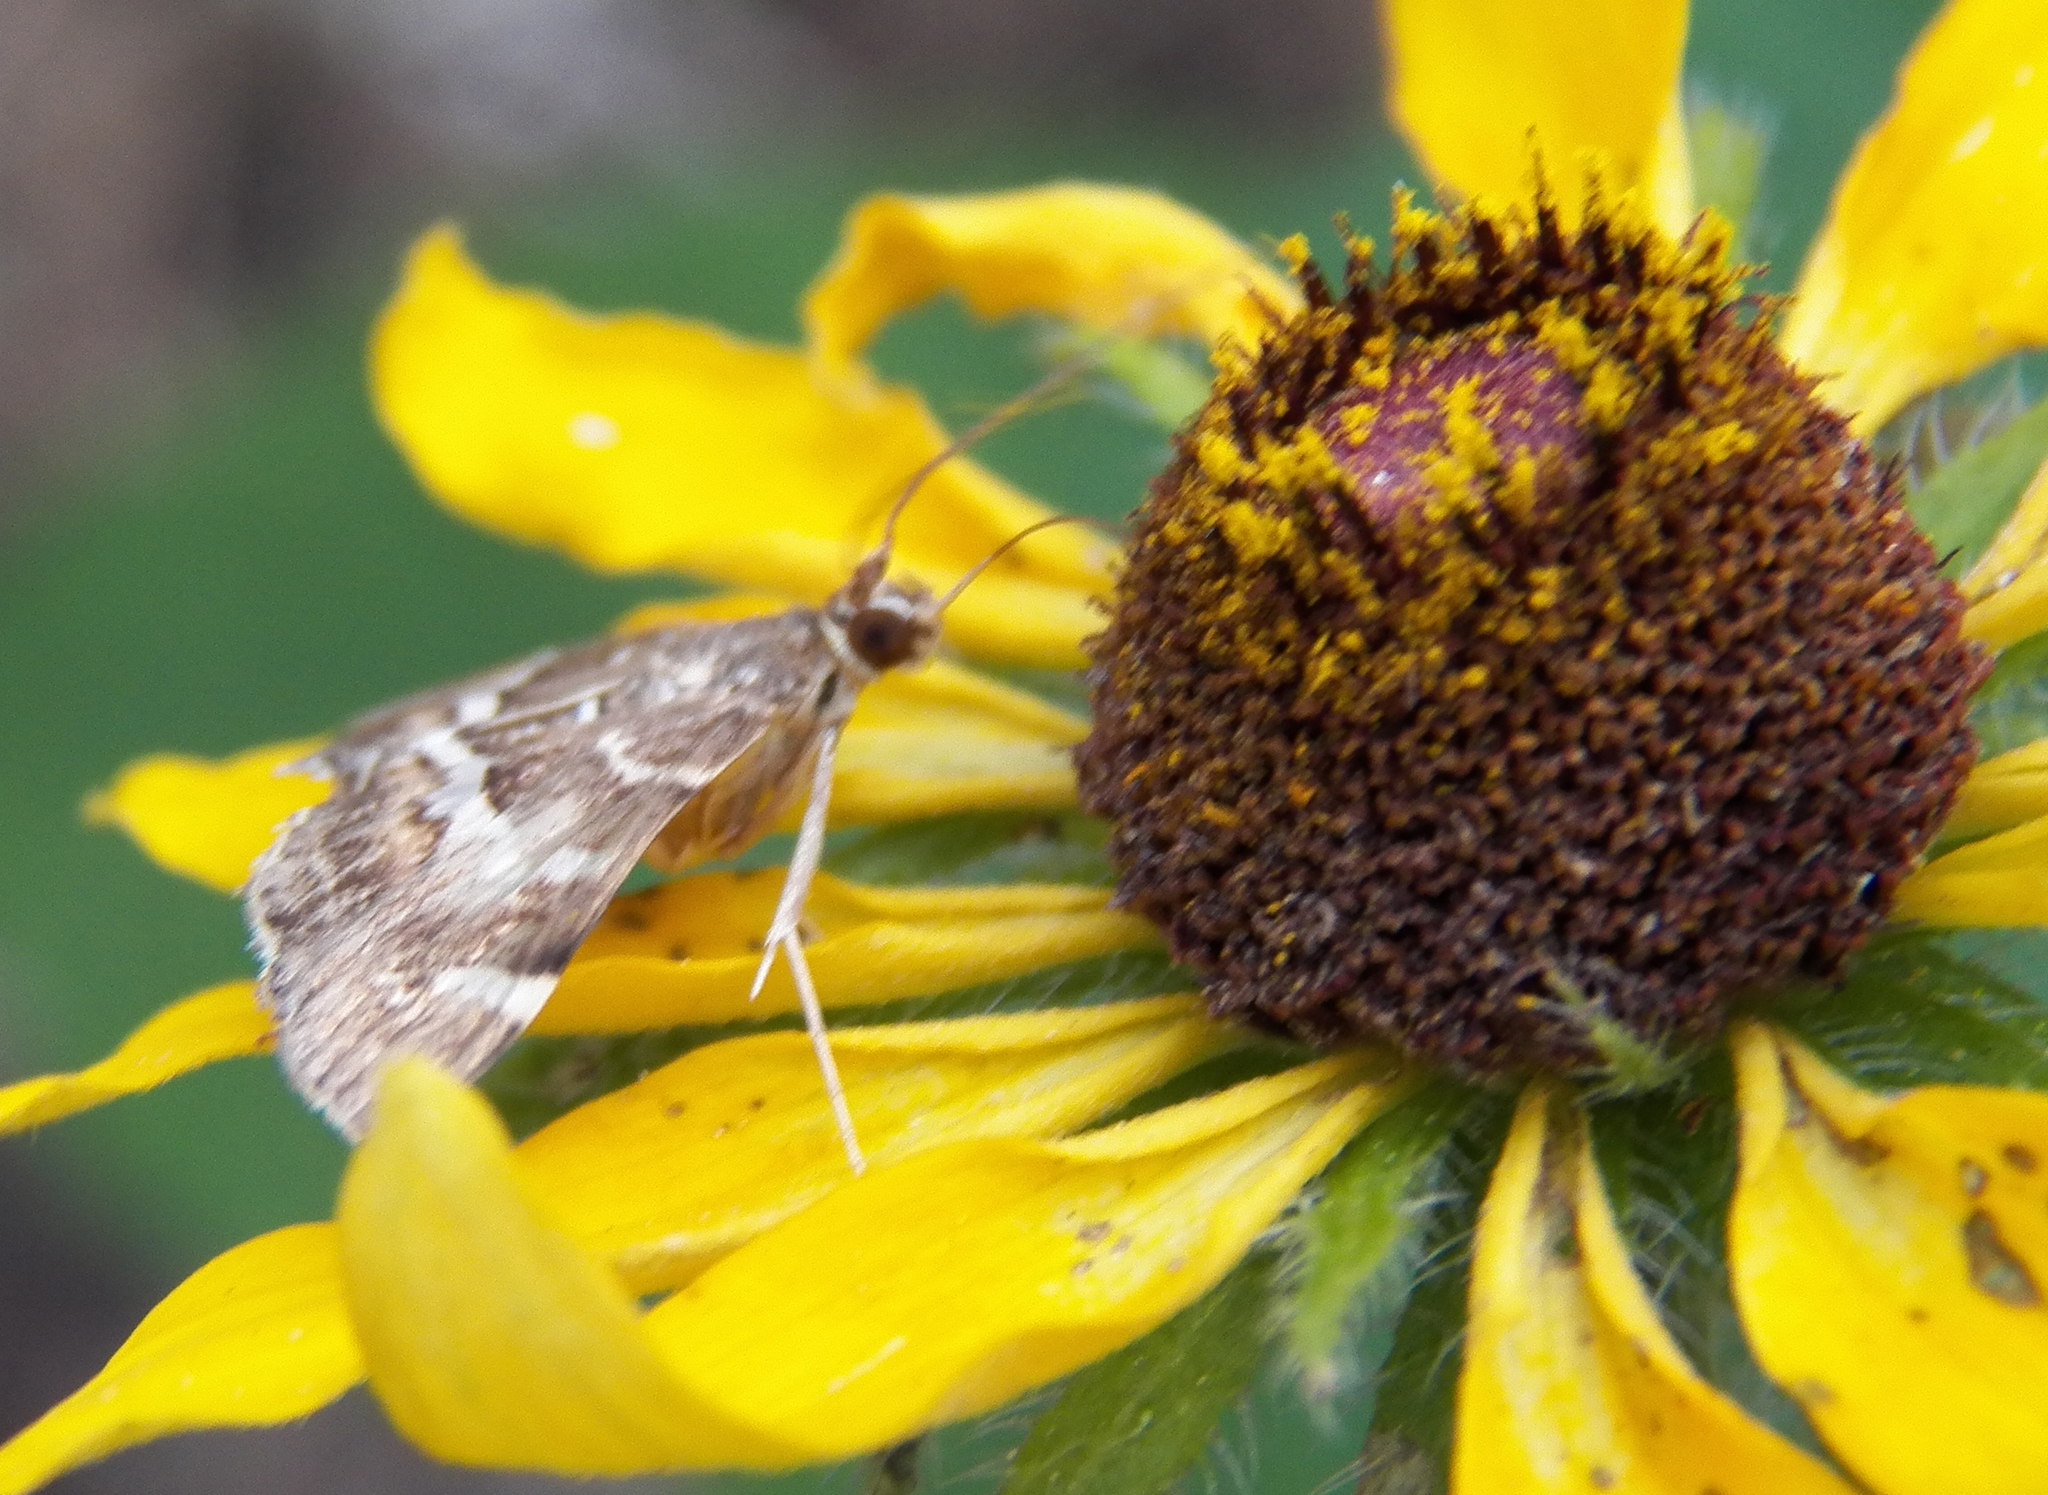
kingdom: Animalia
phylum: Arthropoda
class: Insecta
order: Lepidoptera
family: Crambidae
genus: Hymenia
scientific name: Hymenia perspectalis
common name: Spotted beet webworm
